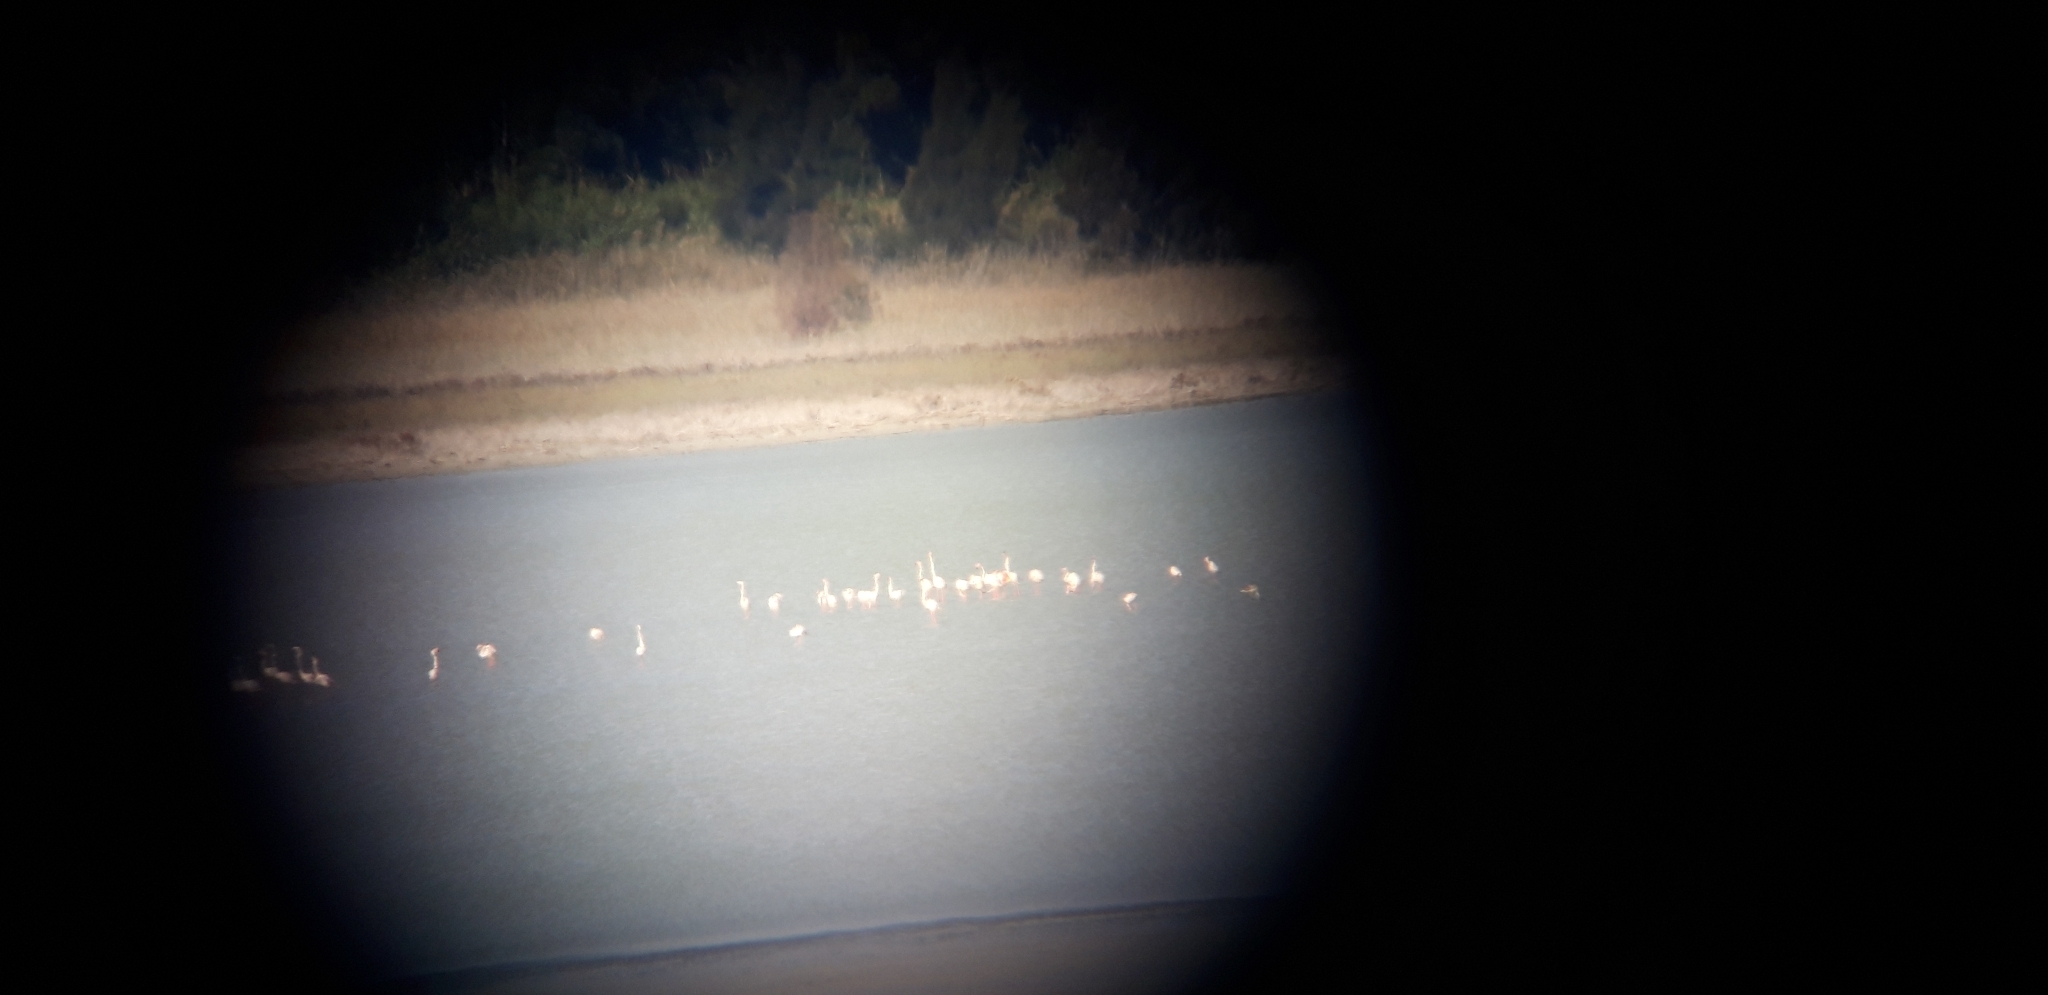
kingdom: Animalia
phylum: Chordata
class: Aves
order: Phoenicopteriformes
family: Phoenicopteridae
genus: Phoenicopterus
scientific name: Phoenicopterus roseus
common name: Greater flamingo
